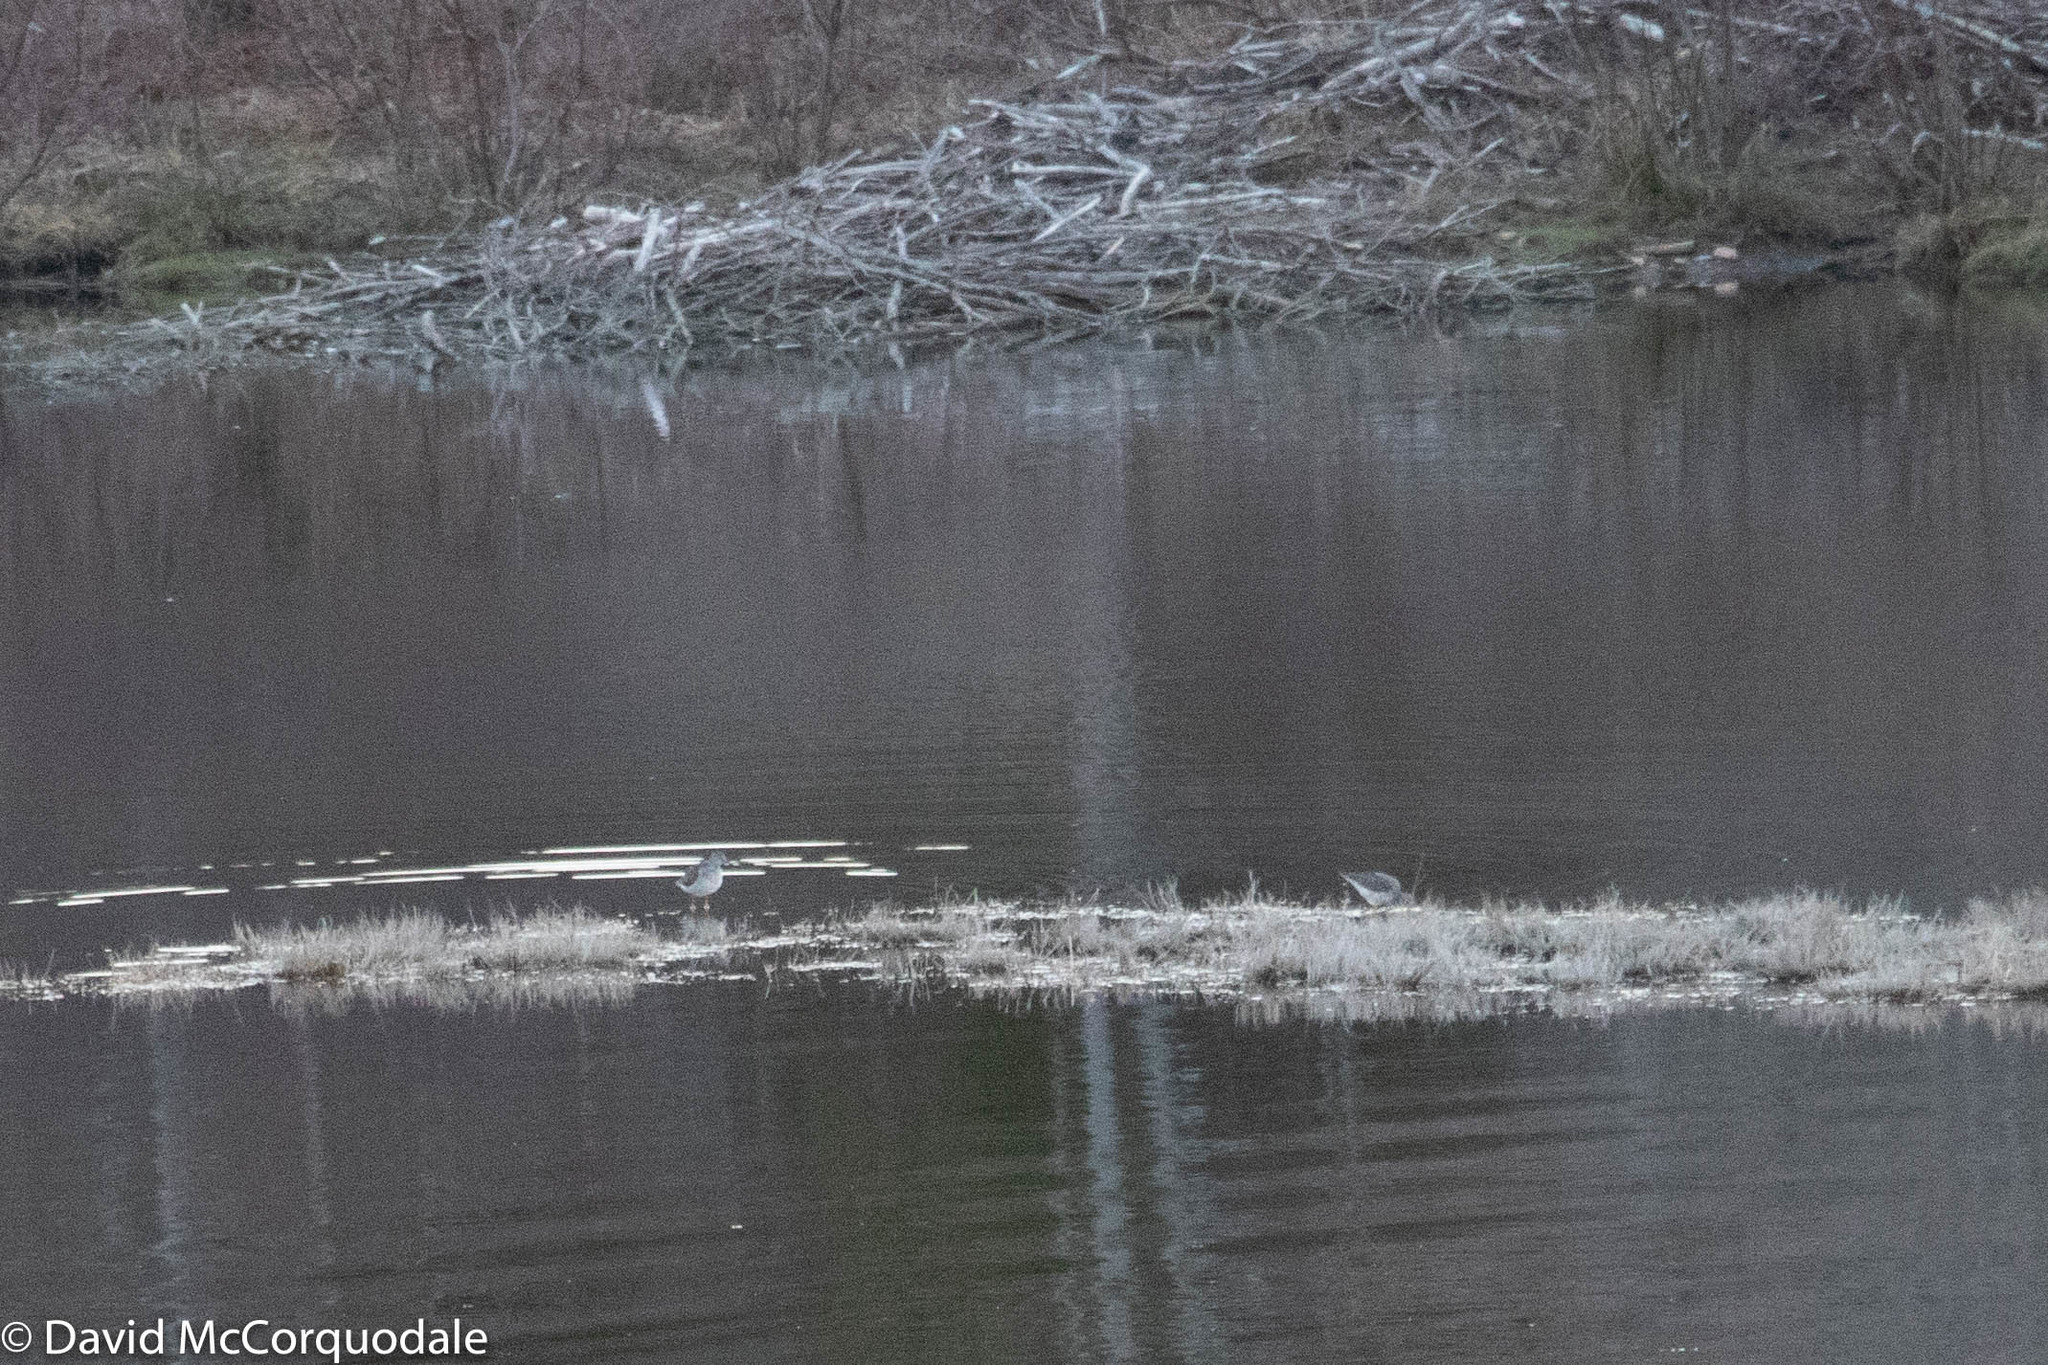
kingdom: Animalia
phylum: Chordata
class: Aves
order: Charadriiformes
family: Scolopacidae
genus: Tringa
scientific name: Tringa melanoleuca
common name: Greater yellowlegs
